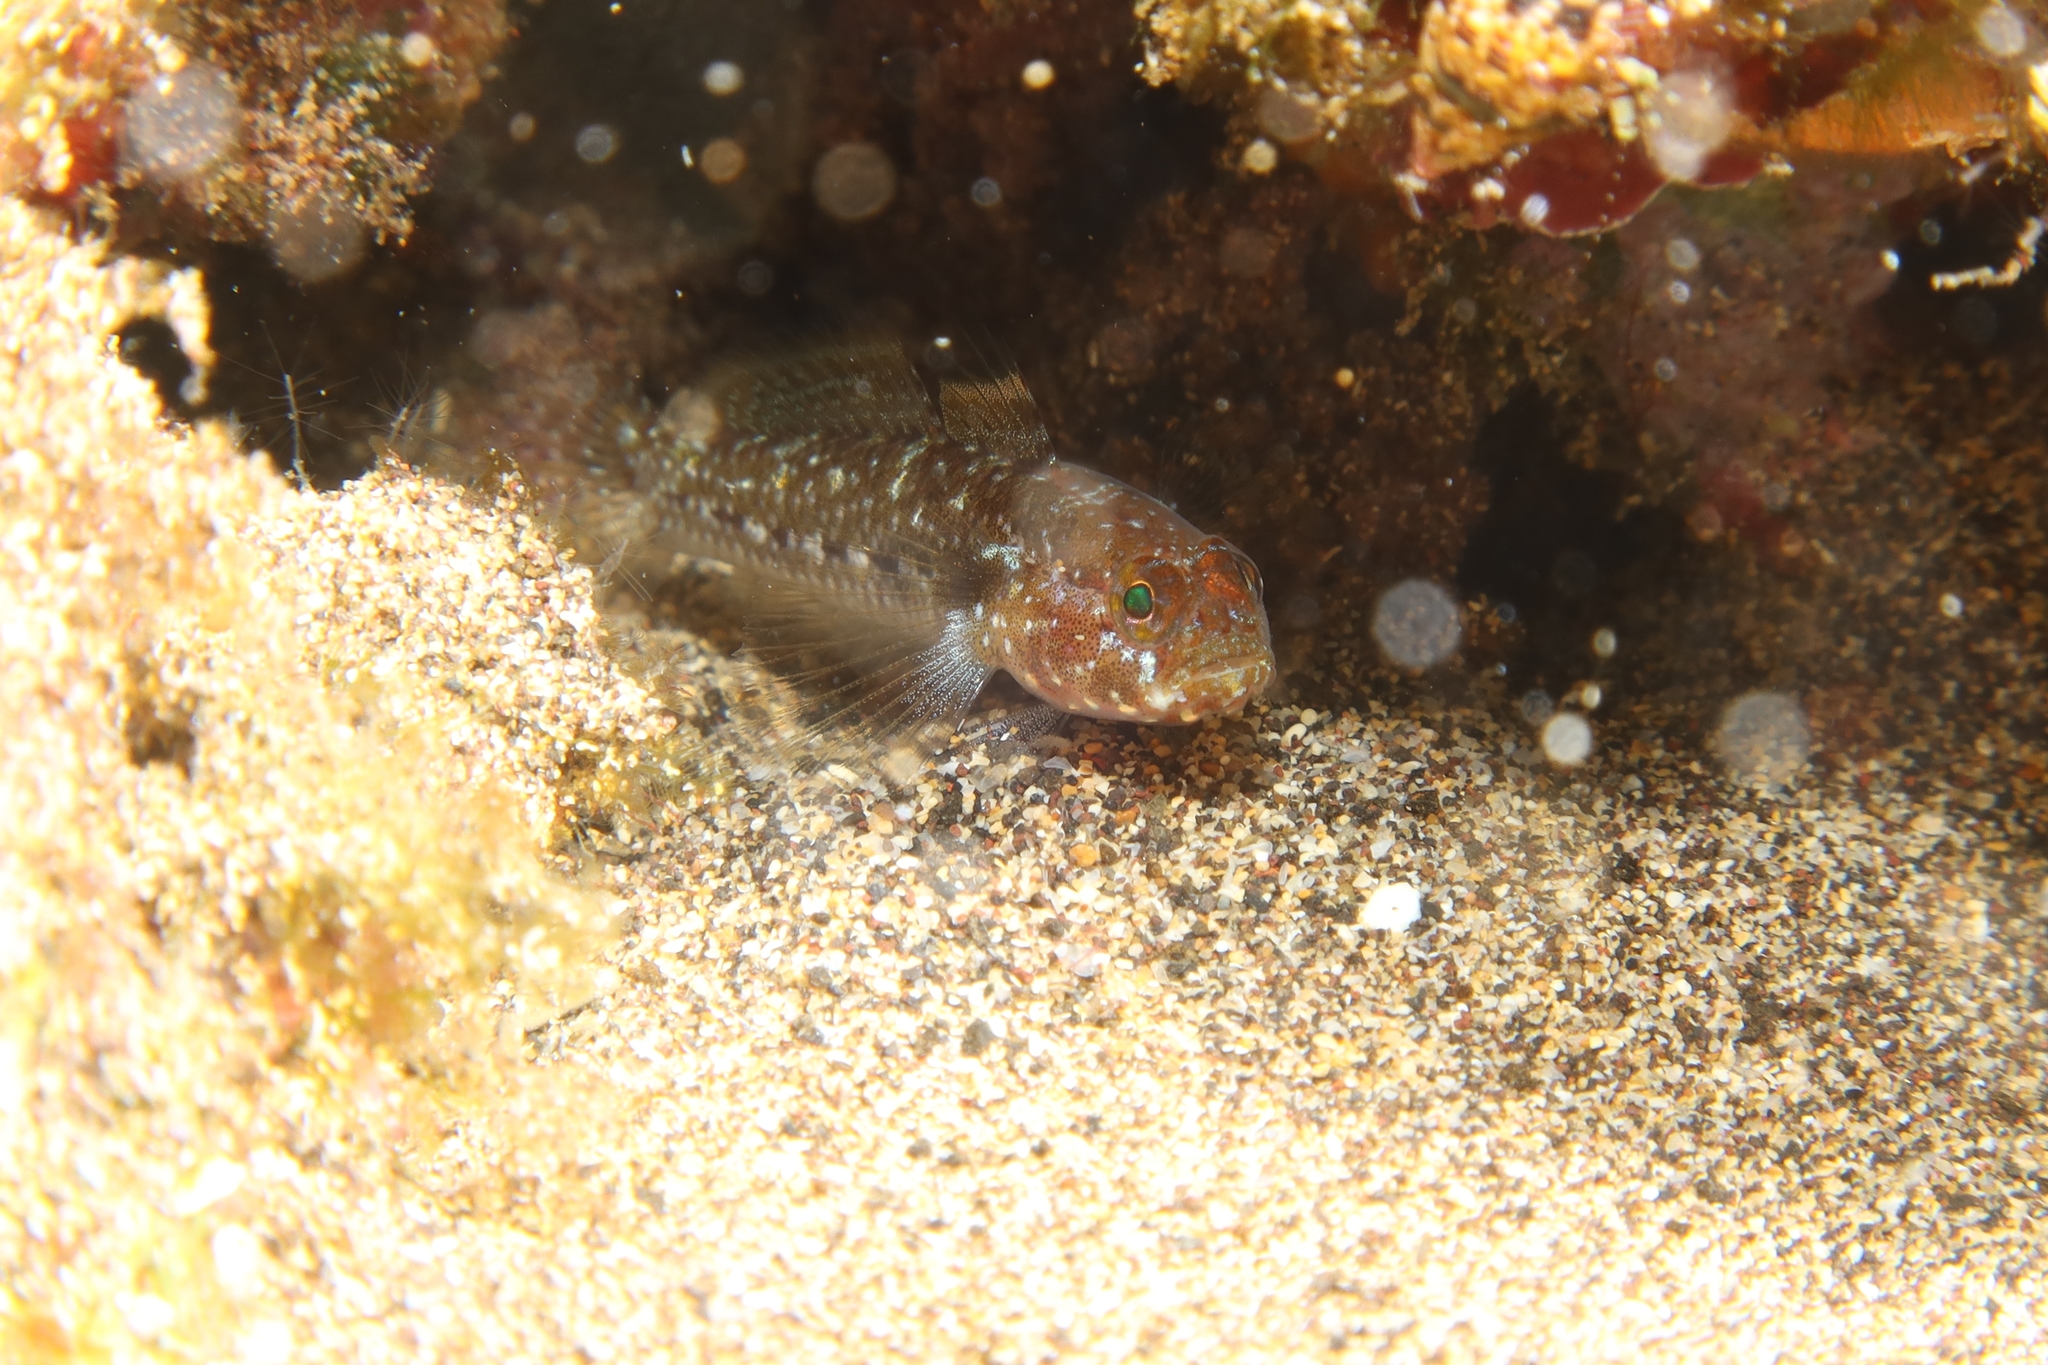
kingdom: Animalia
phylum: Chordata
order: Perciformes
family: Gobiidae
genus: Vanneaugobius
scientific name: Vanneaugobius canariensis
